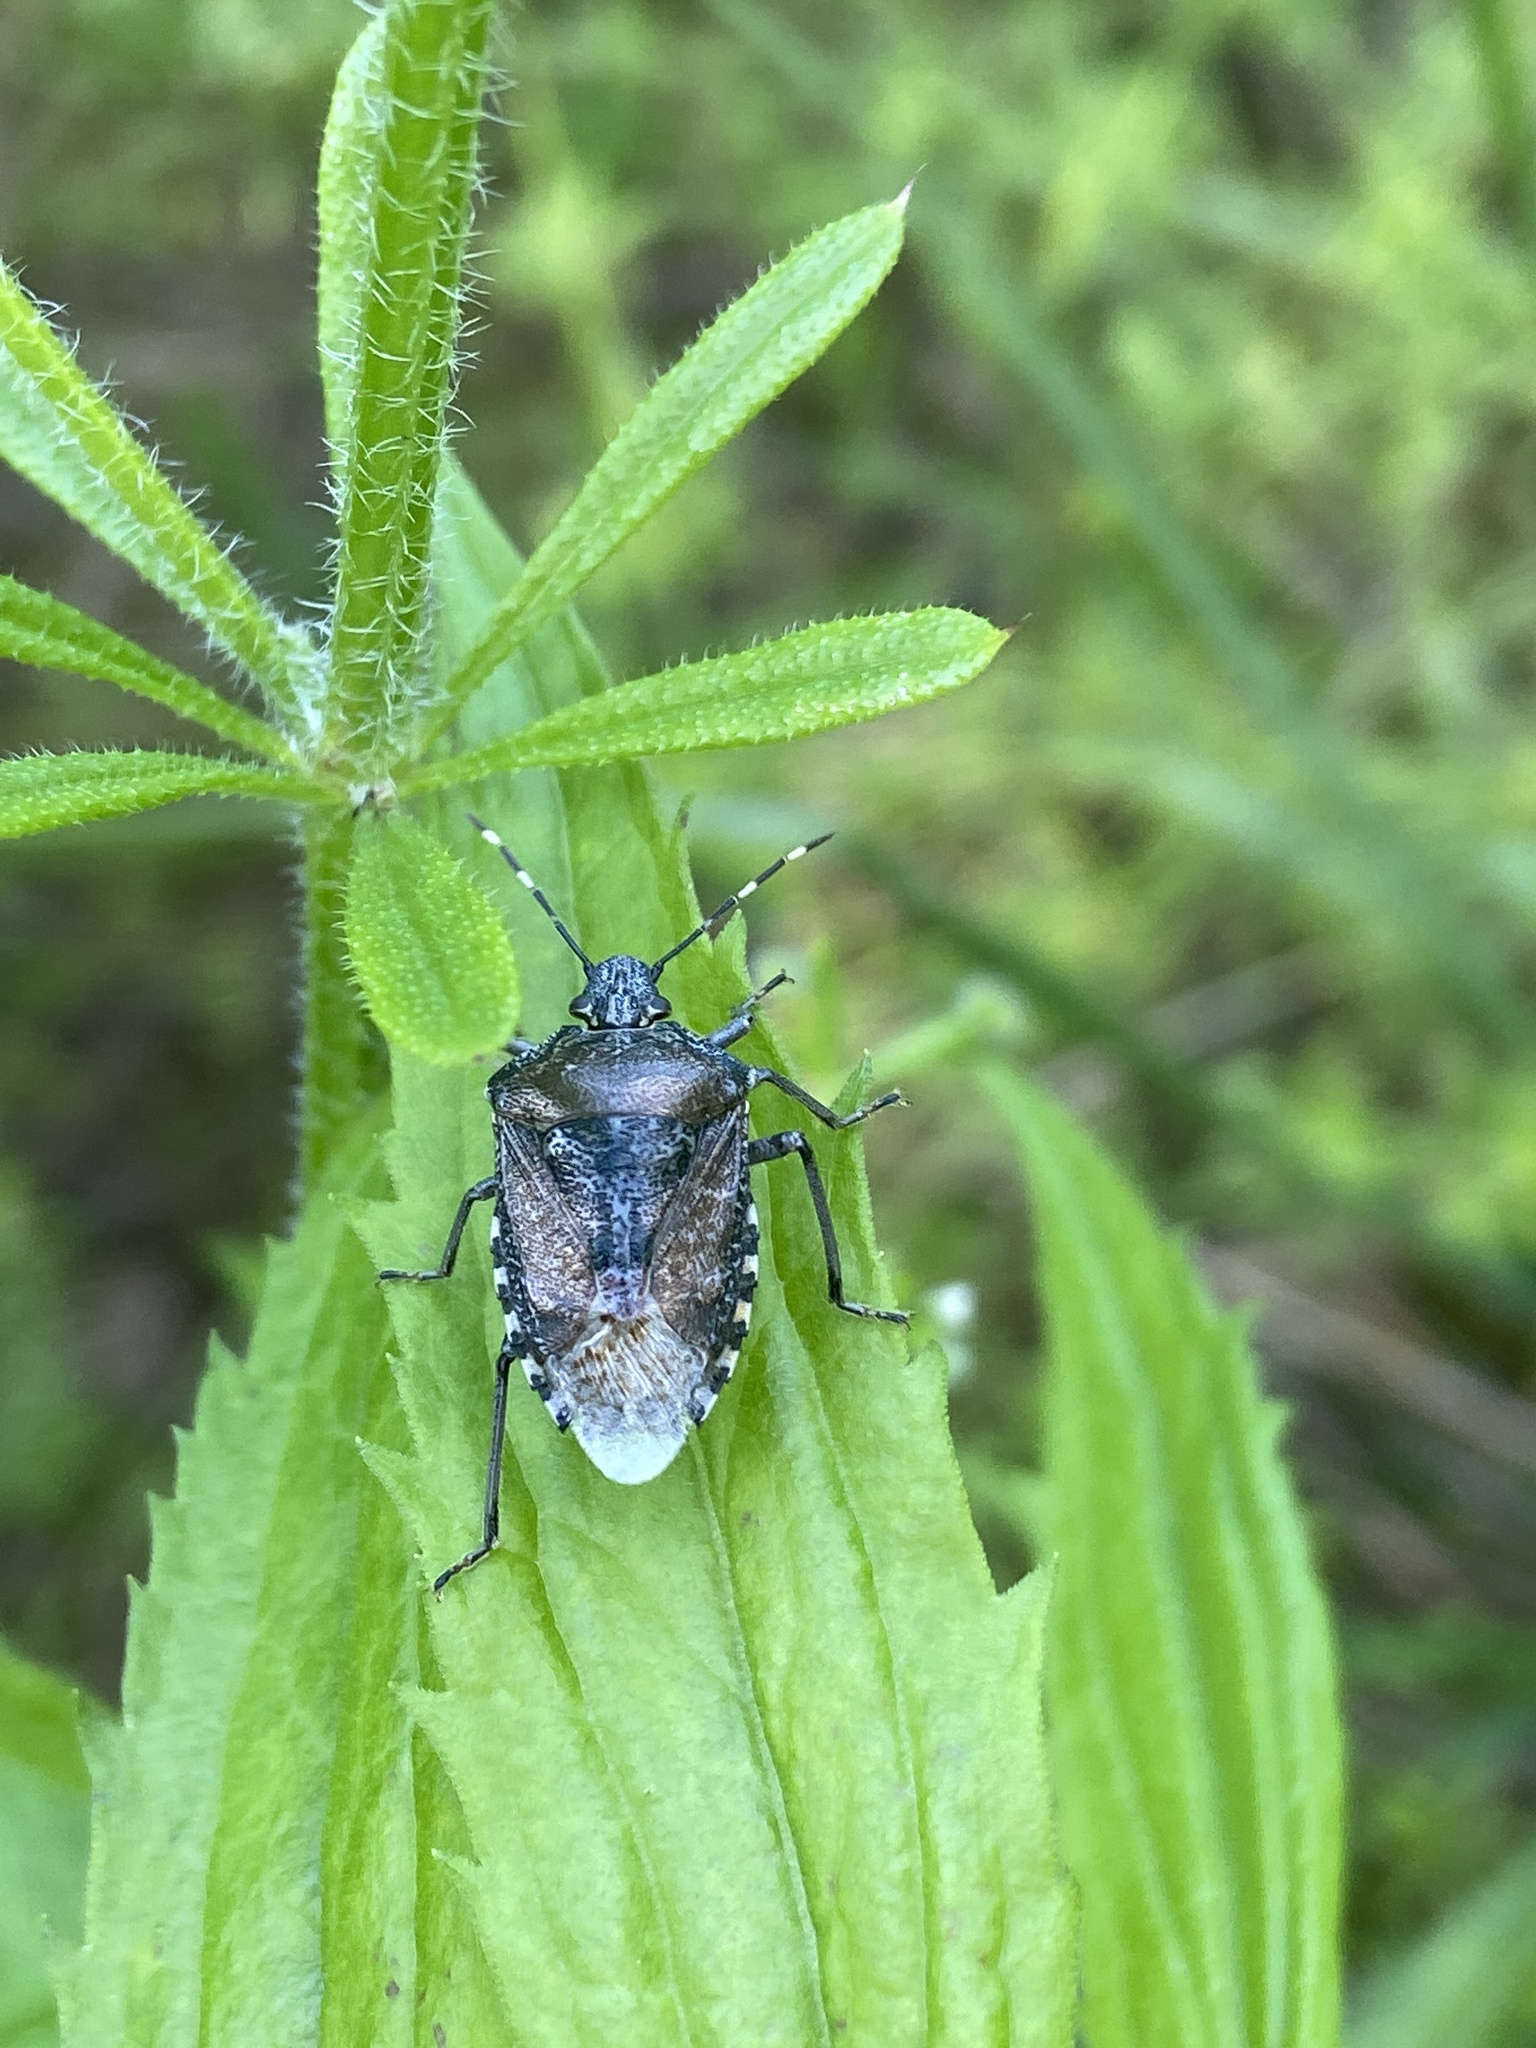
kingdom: Animalia
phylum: Arthropoda
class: Insecta
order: Hemiptera
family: Pentatomidae
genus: Rhaphigaster
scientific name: Rhaphigaster nebulosa
